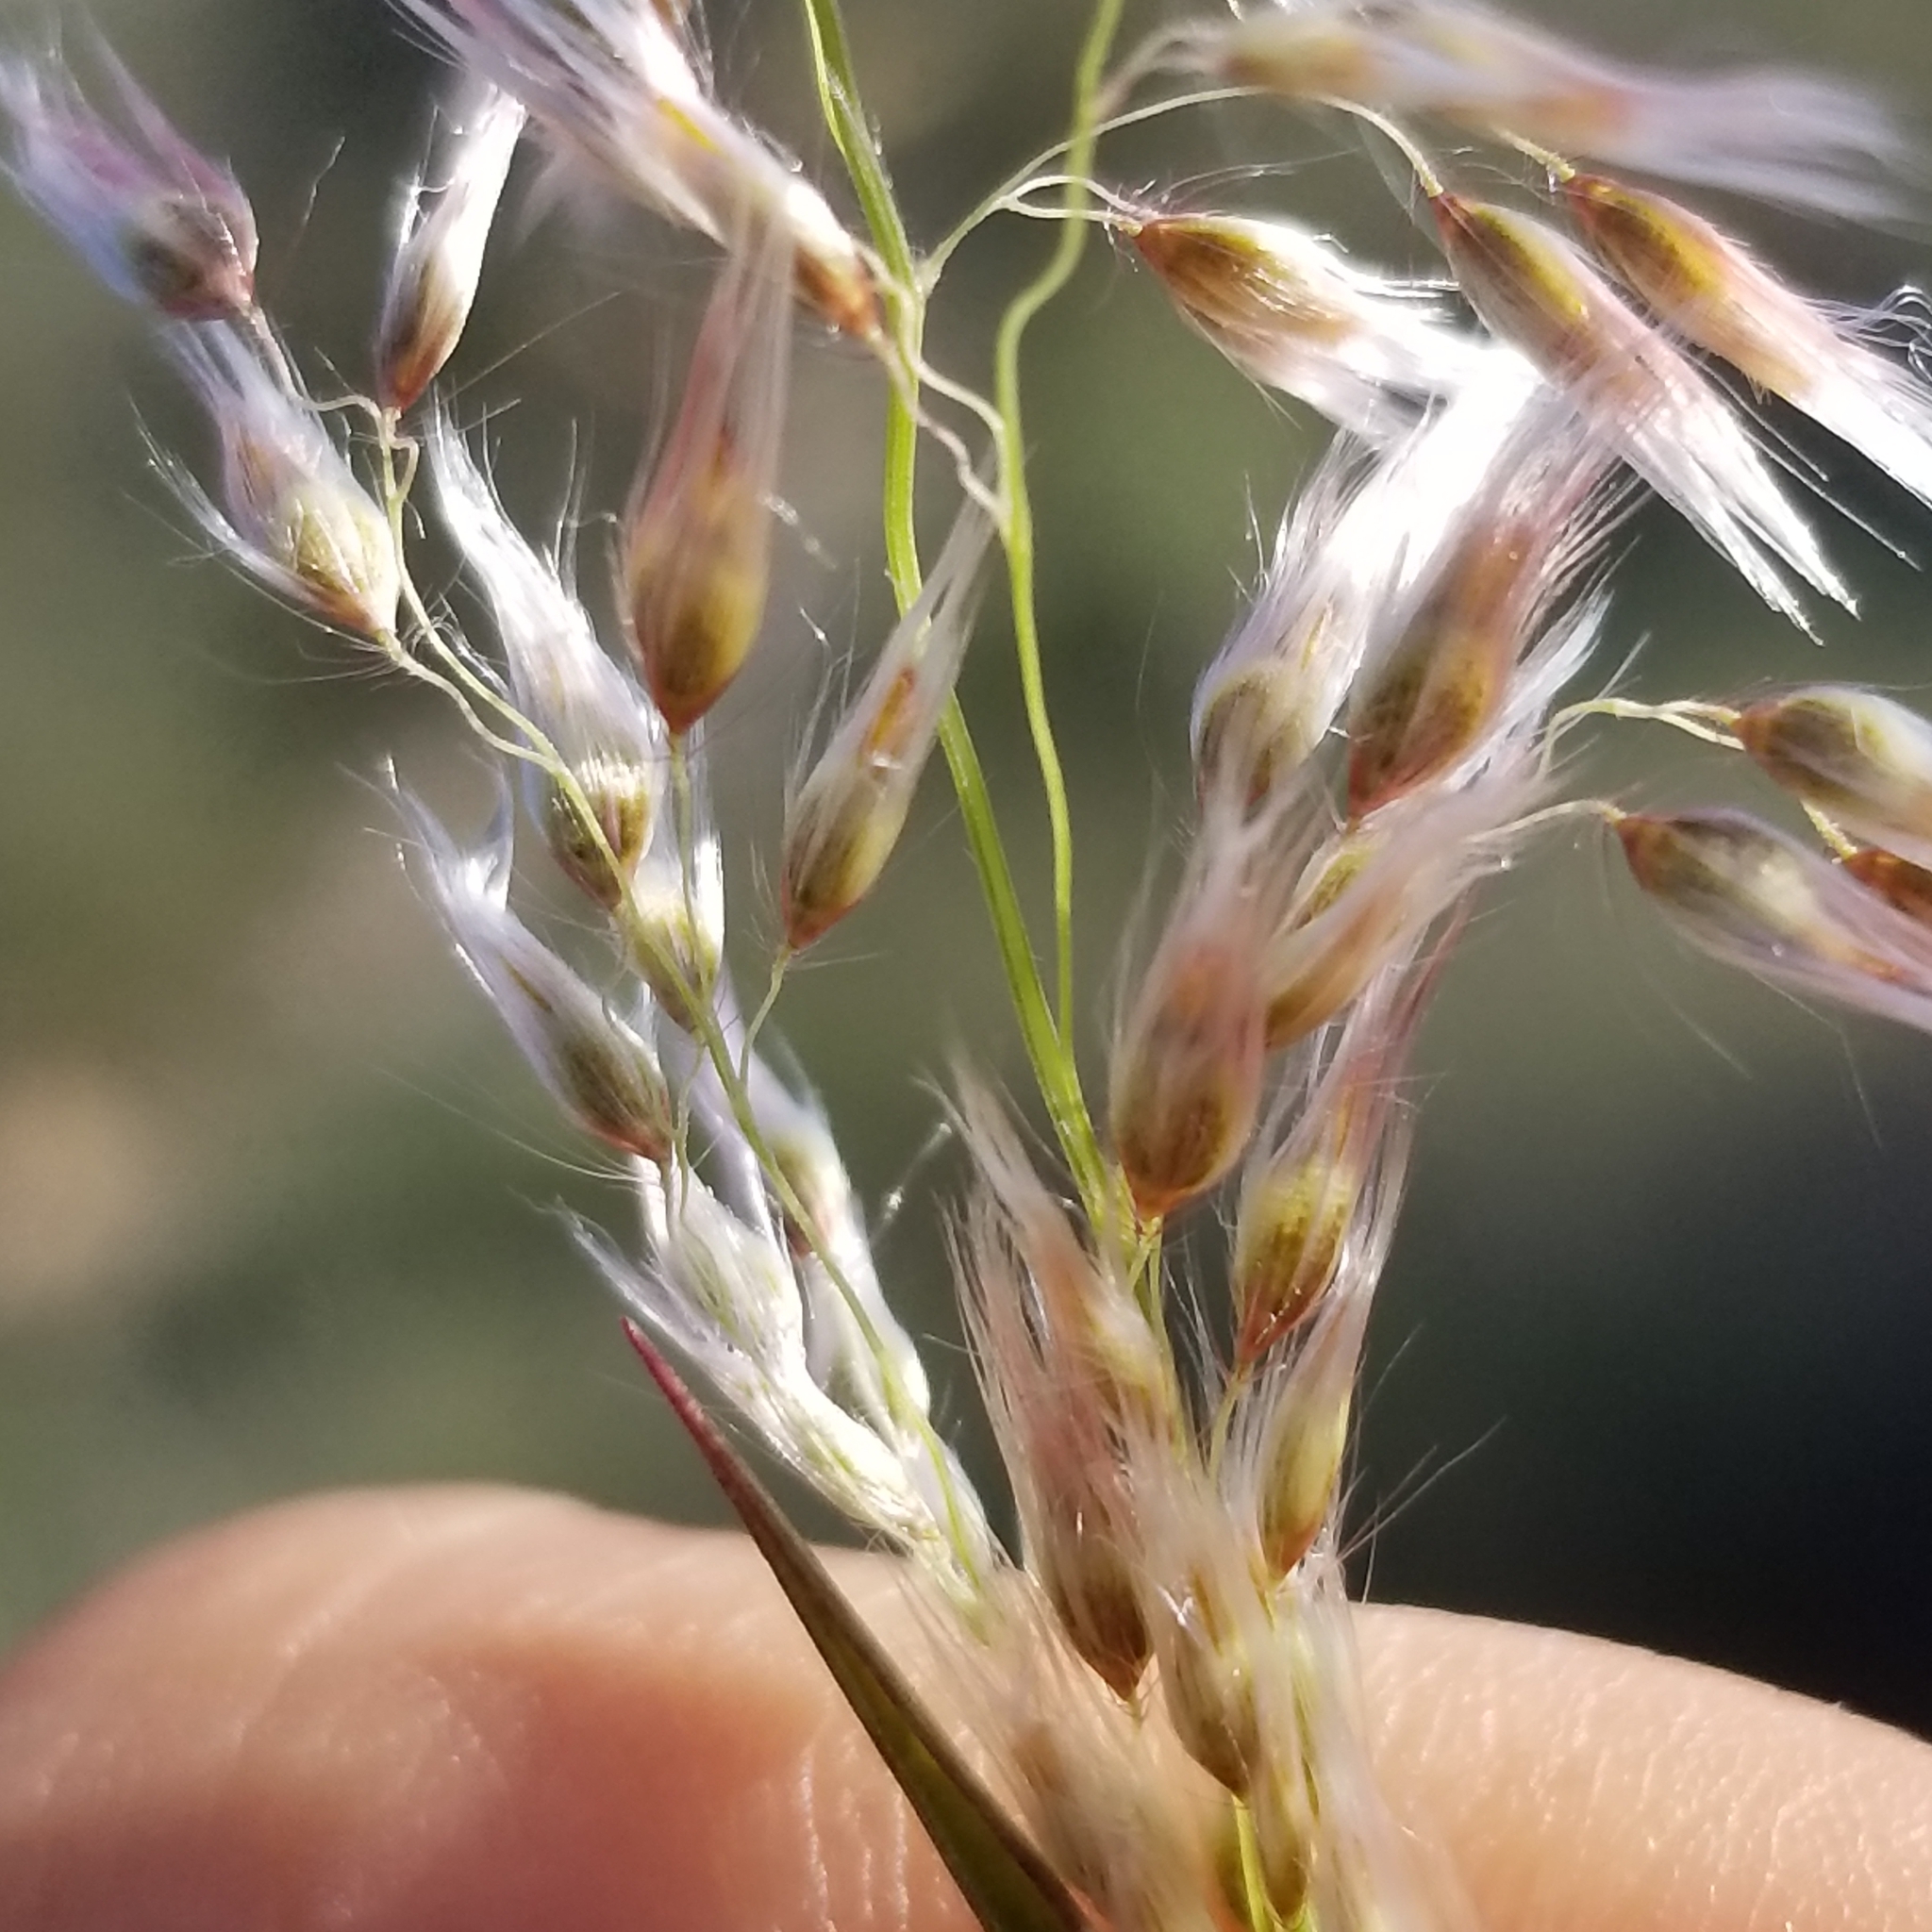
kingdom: Plantae
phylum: Tracheophyta
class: Liliopsida
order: Poales
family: Poaceae
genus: Melinis
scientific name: Melinis repens
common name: Rose natal grass
